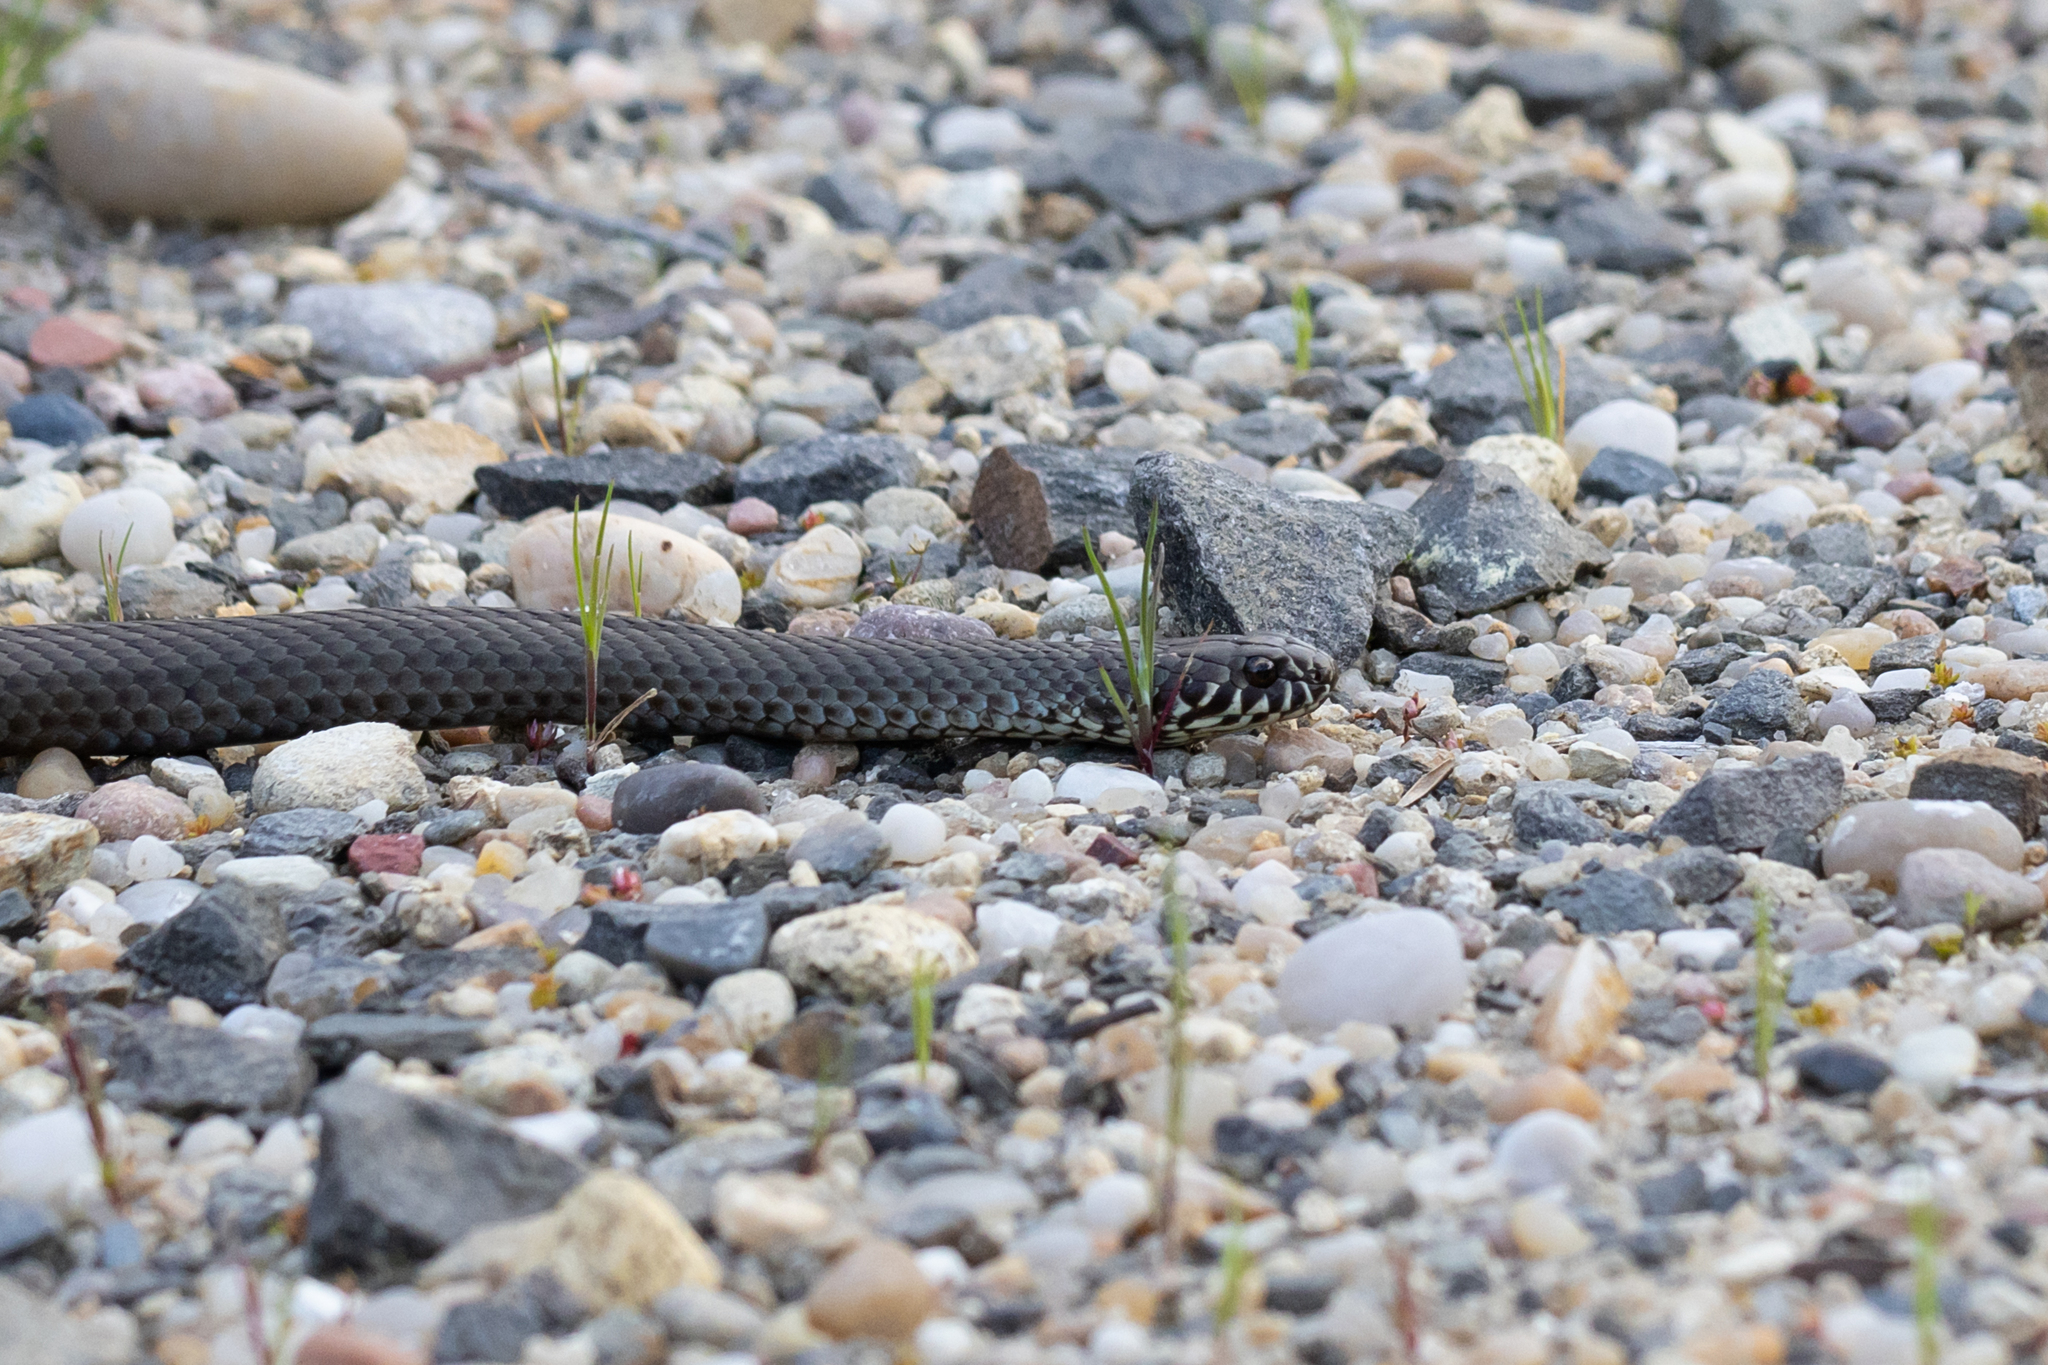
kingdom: Animalia
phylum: Chordata
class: Squamata
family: Elapidae
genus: Austrelaps
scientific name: Austrelaps labialis
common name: Pygmy copperhead
